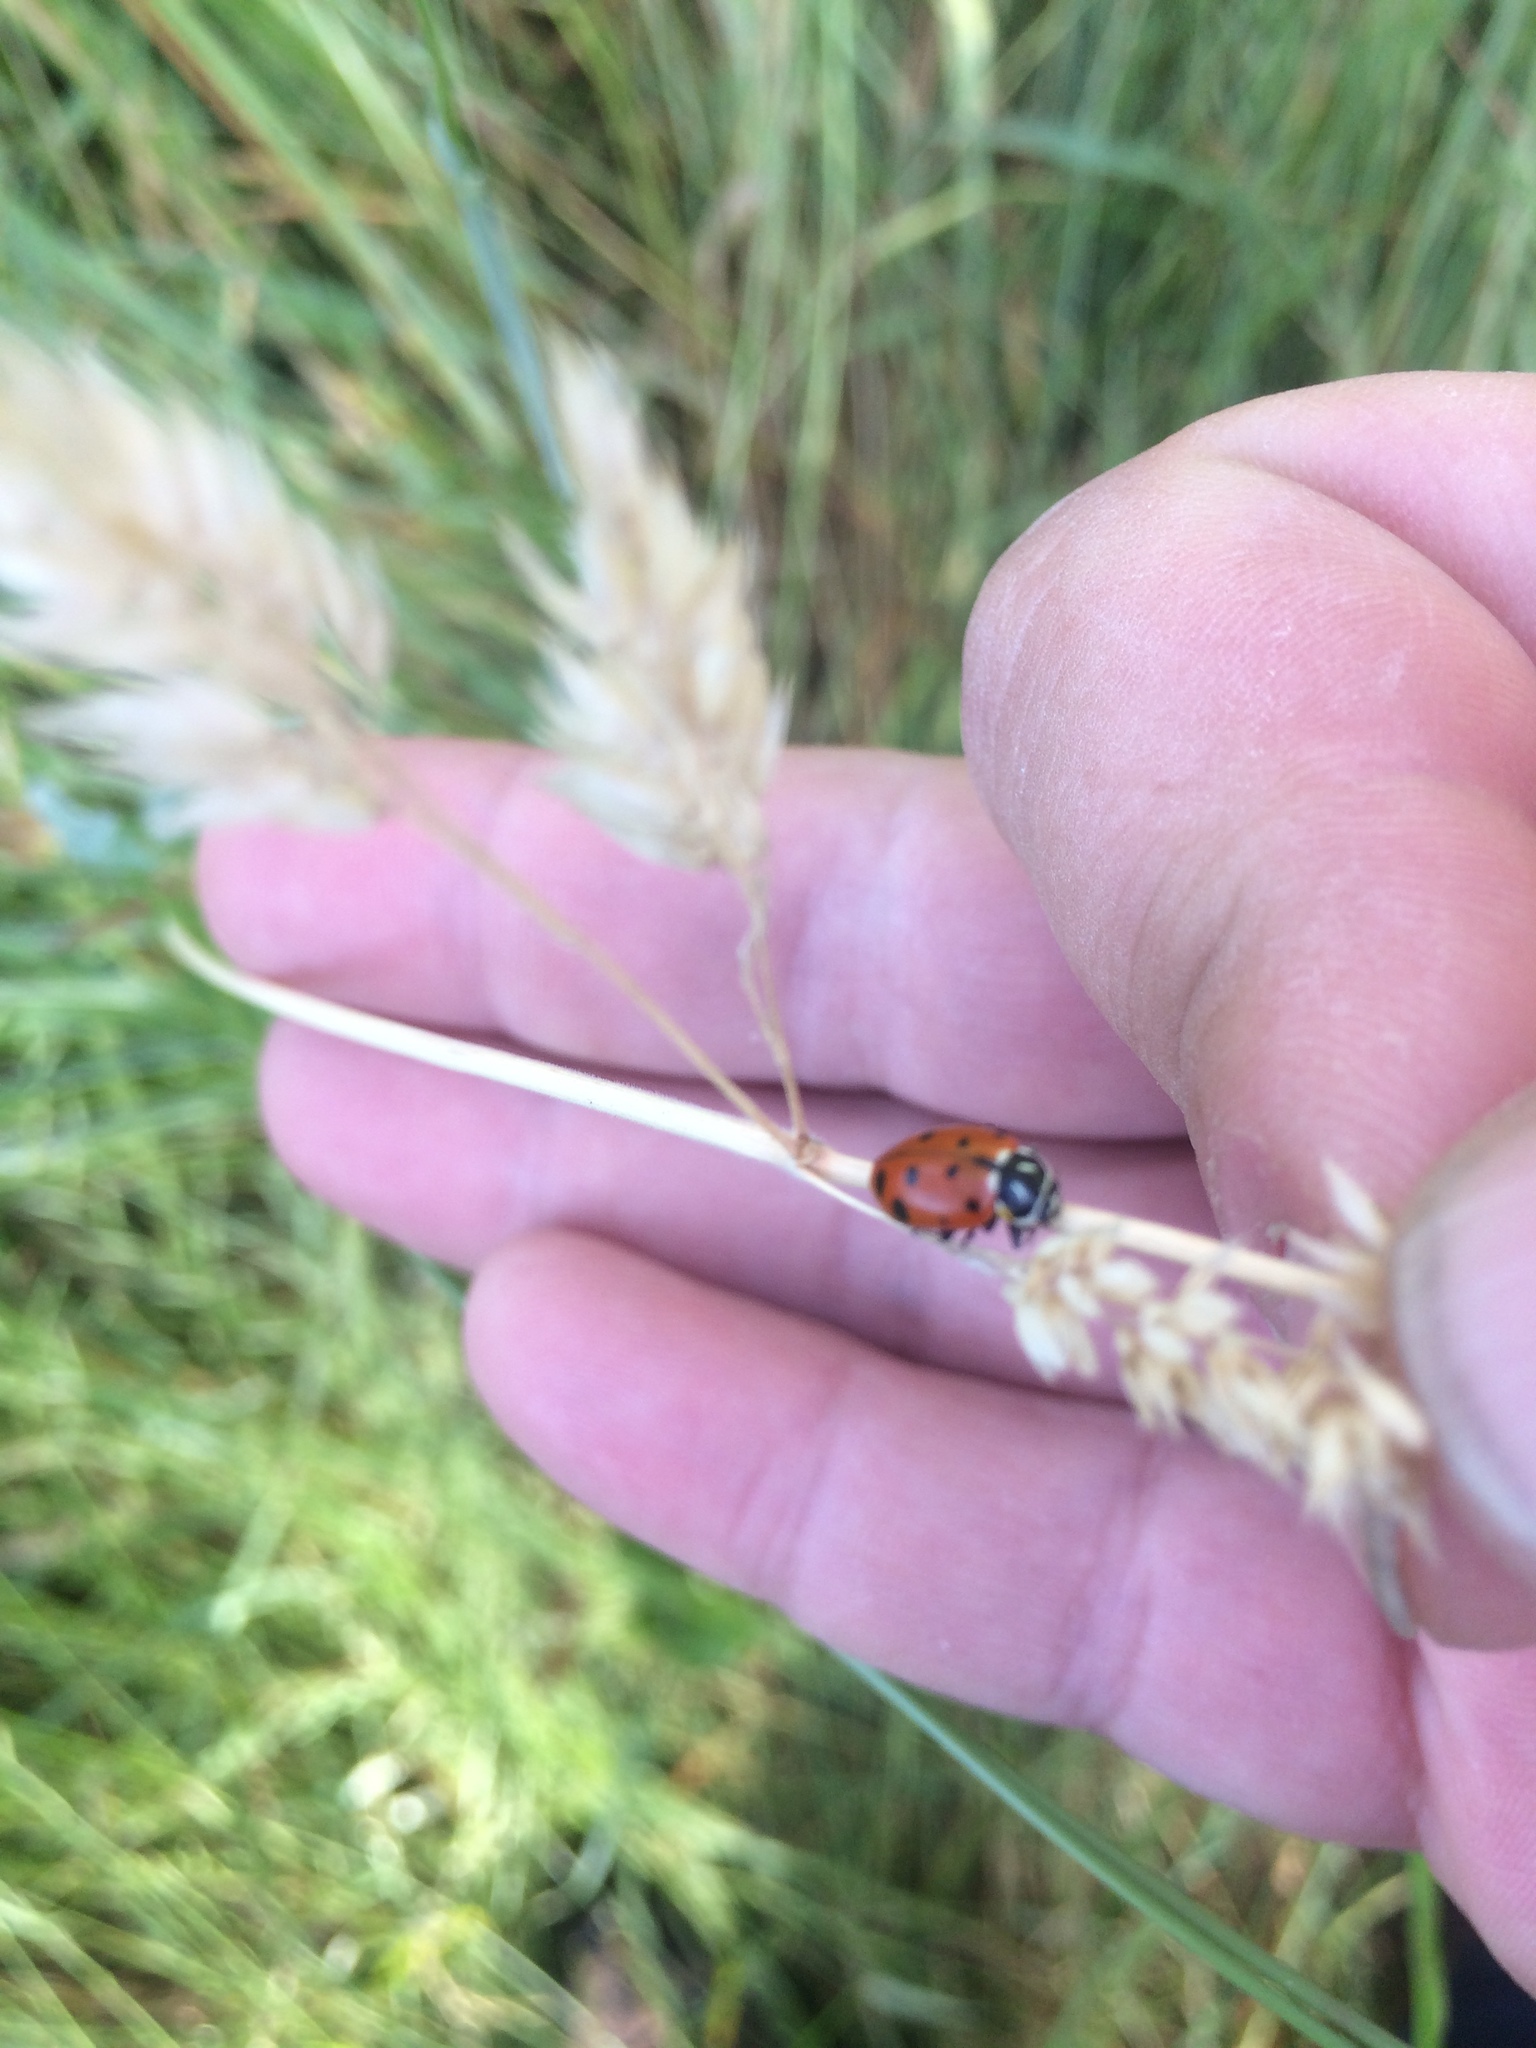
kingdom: Animalia
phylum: Arthropoda
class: Insecta
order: Coleoptera
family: Coccinellidae
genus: Hippodamia
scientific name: Hippodamia convergens
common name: Convergent lady beetle
